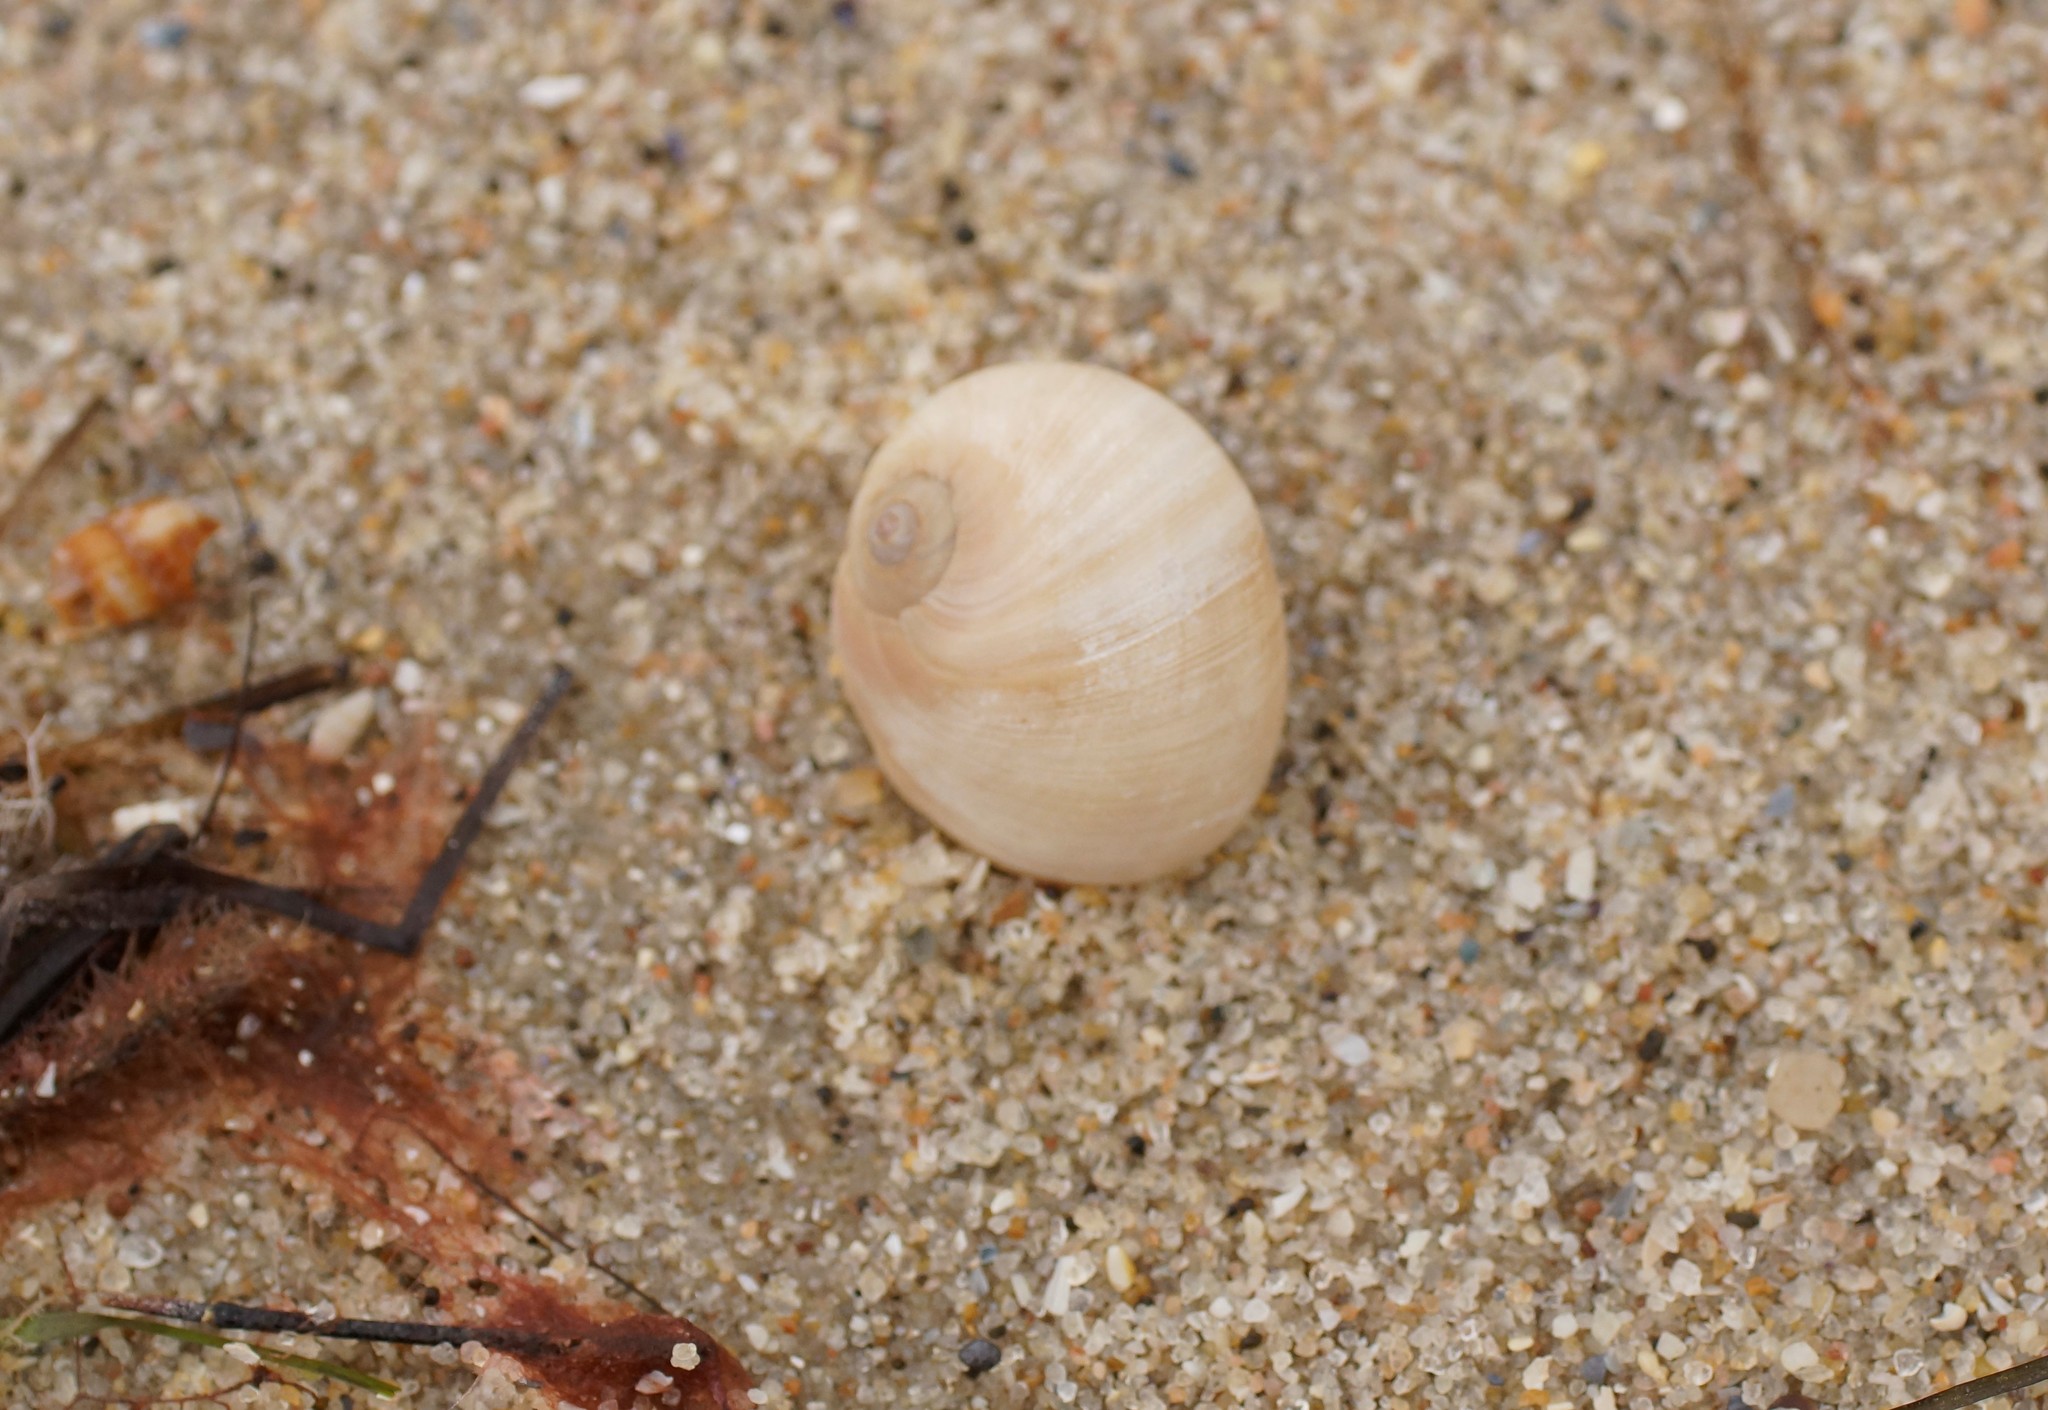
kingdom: Animalia
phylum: Mollusca
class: Gastropoda
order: Littorinimorpha
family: Naticidae
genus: Neverita
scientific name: Neverita didyma
